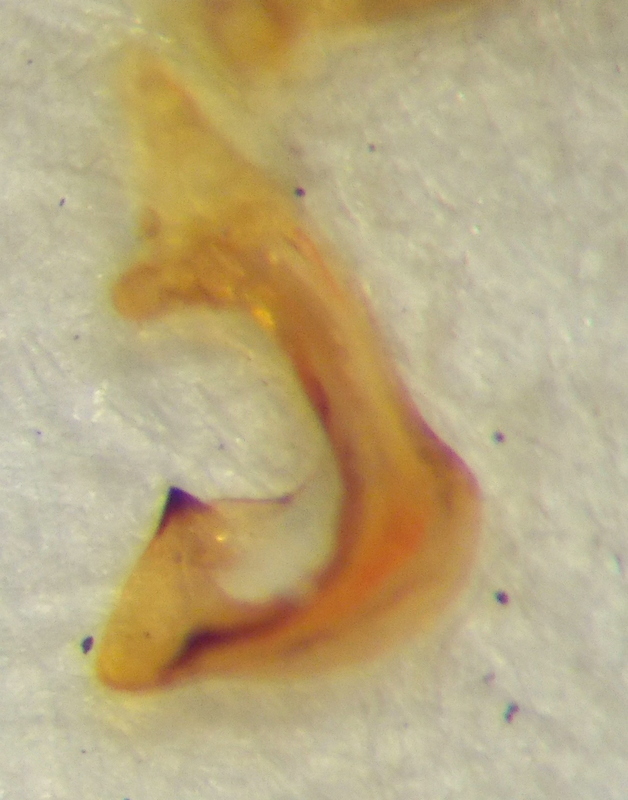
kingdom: Animalia
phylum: Arthropoda
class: Insecta
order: Hemiptera
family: Pentatomidae
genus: Carpocoris
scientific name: Carpocoris mediterraneus
